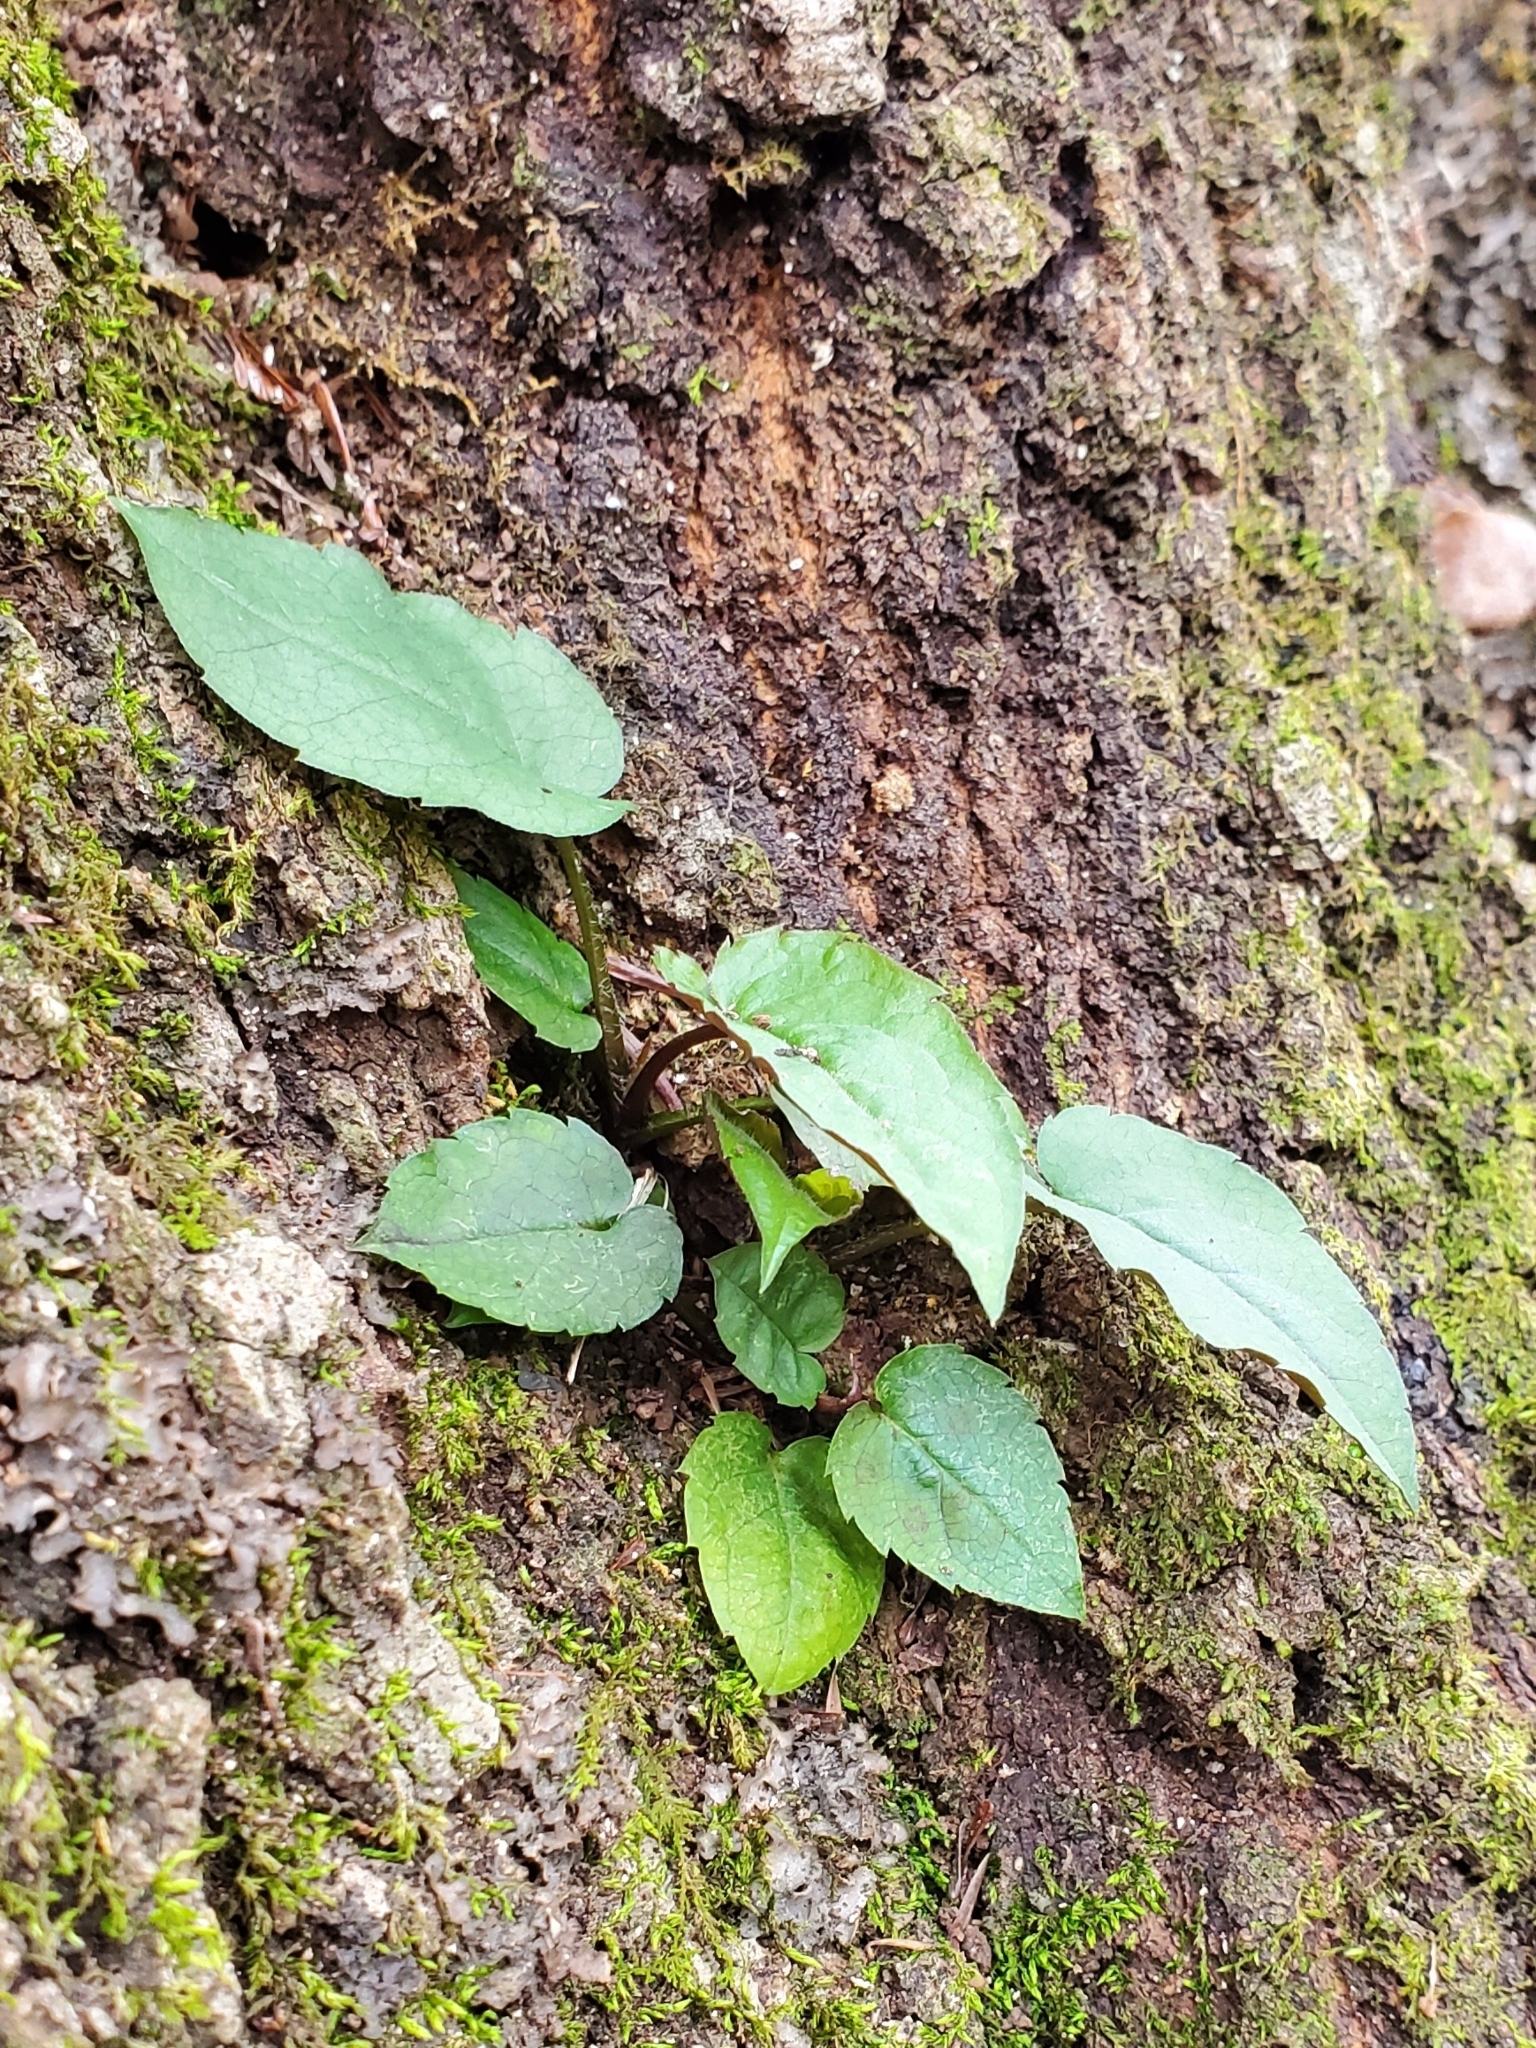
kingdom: Plantae
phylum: Tracheophyta
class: Magnoliopsida
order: Asterales
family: Asteraceae
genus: Eurybia
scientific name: Eurybia divaricata
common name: White wood aster
